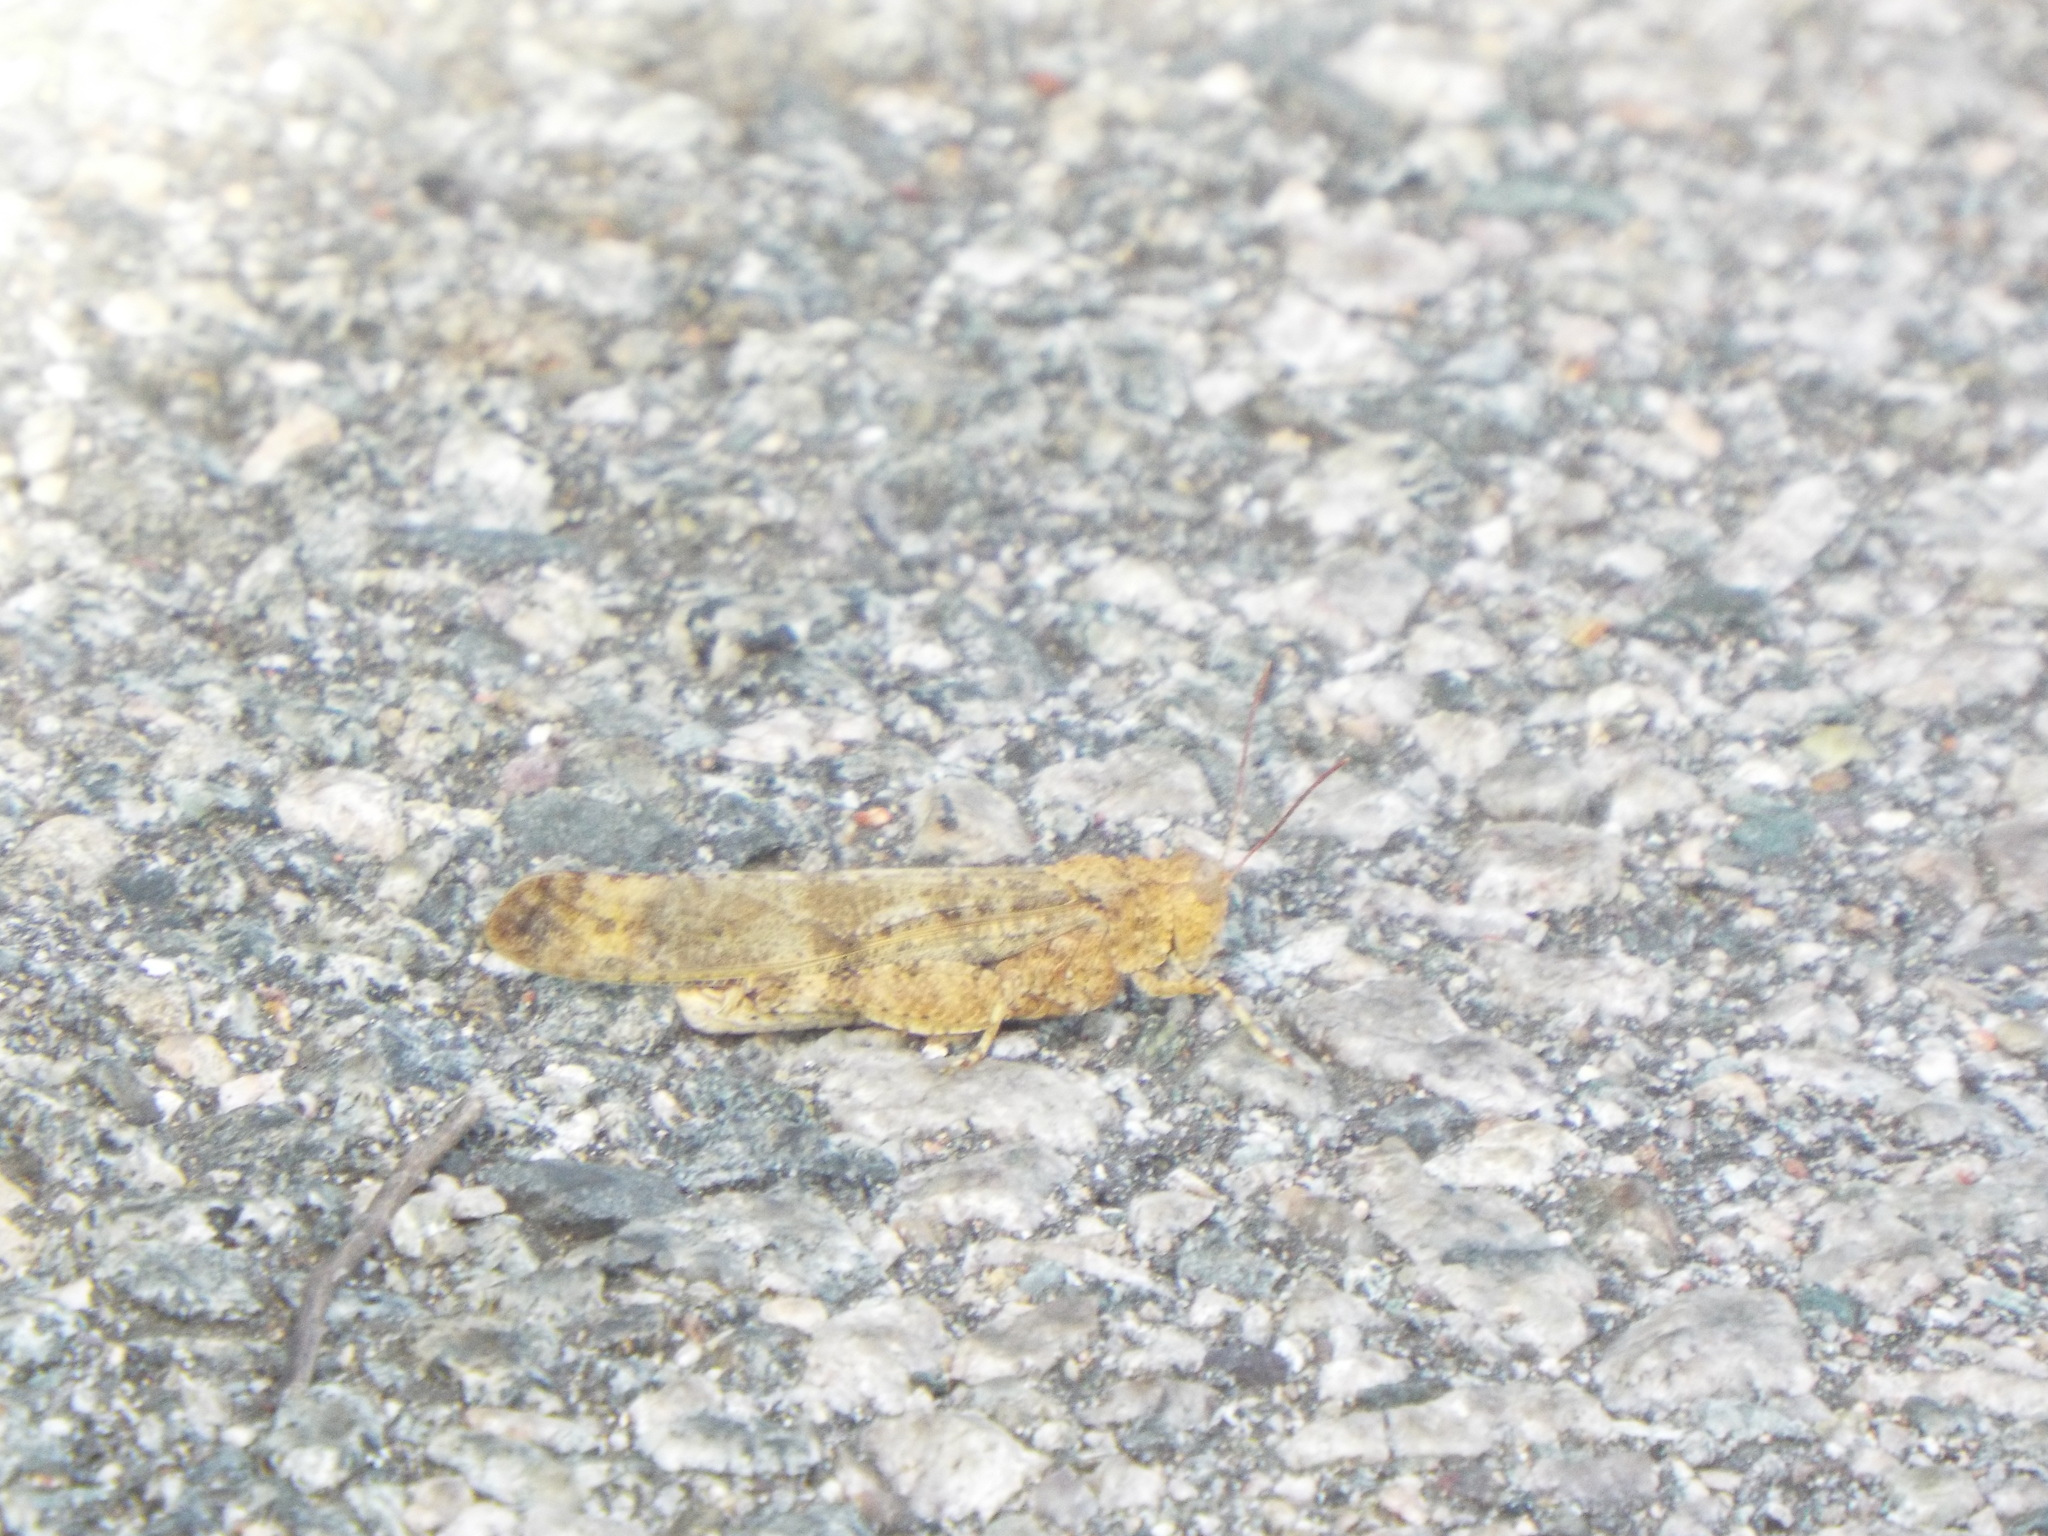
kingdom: Animalia
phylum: Arthropoda
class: Insecta
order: Orthoptera
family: Acrididae
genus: Dissosteira
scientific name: Dissosteira carolina
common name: Carolina grasshopper
